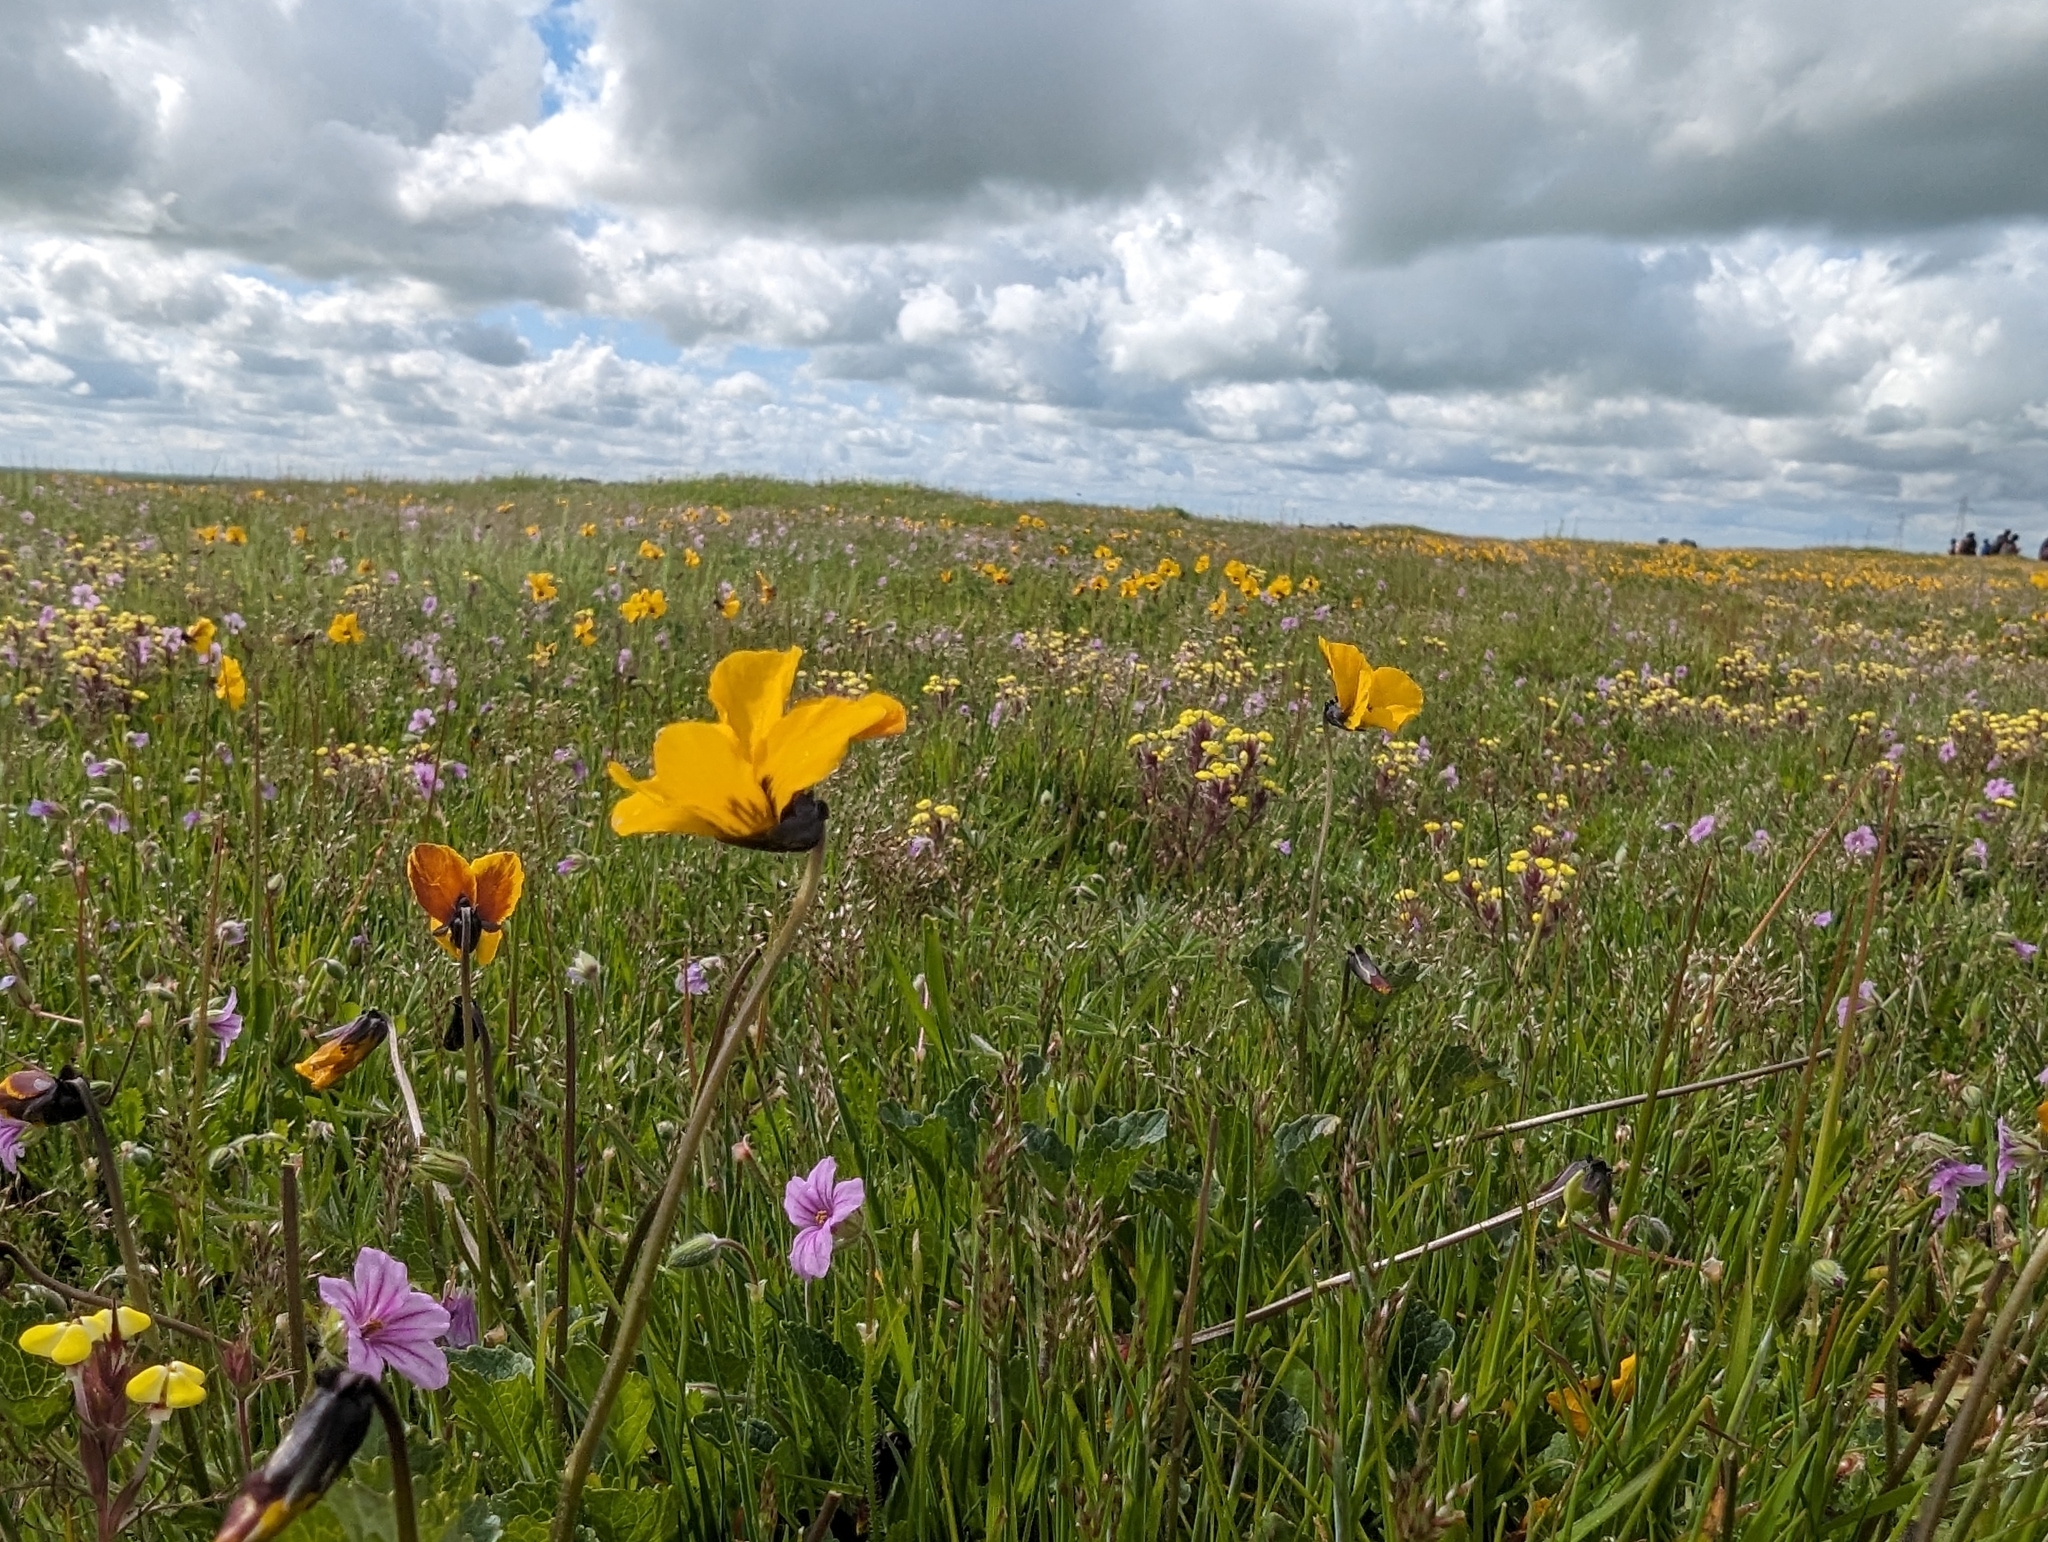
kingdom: Plantae
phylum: Tracheophyta
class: Magnoliopsida
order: Malpighiales
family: Violaceae
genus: Viola
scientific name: Viola pedunculata
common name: California golden violet
